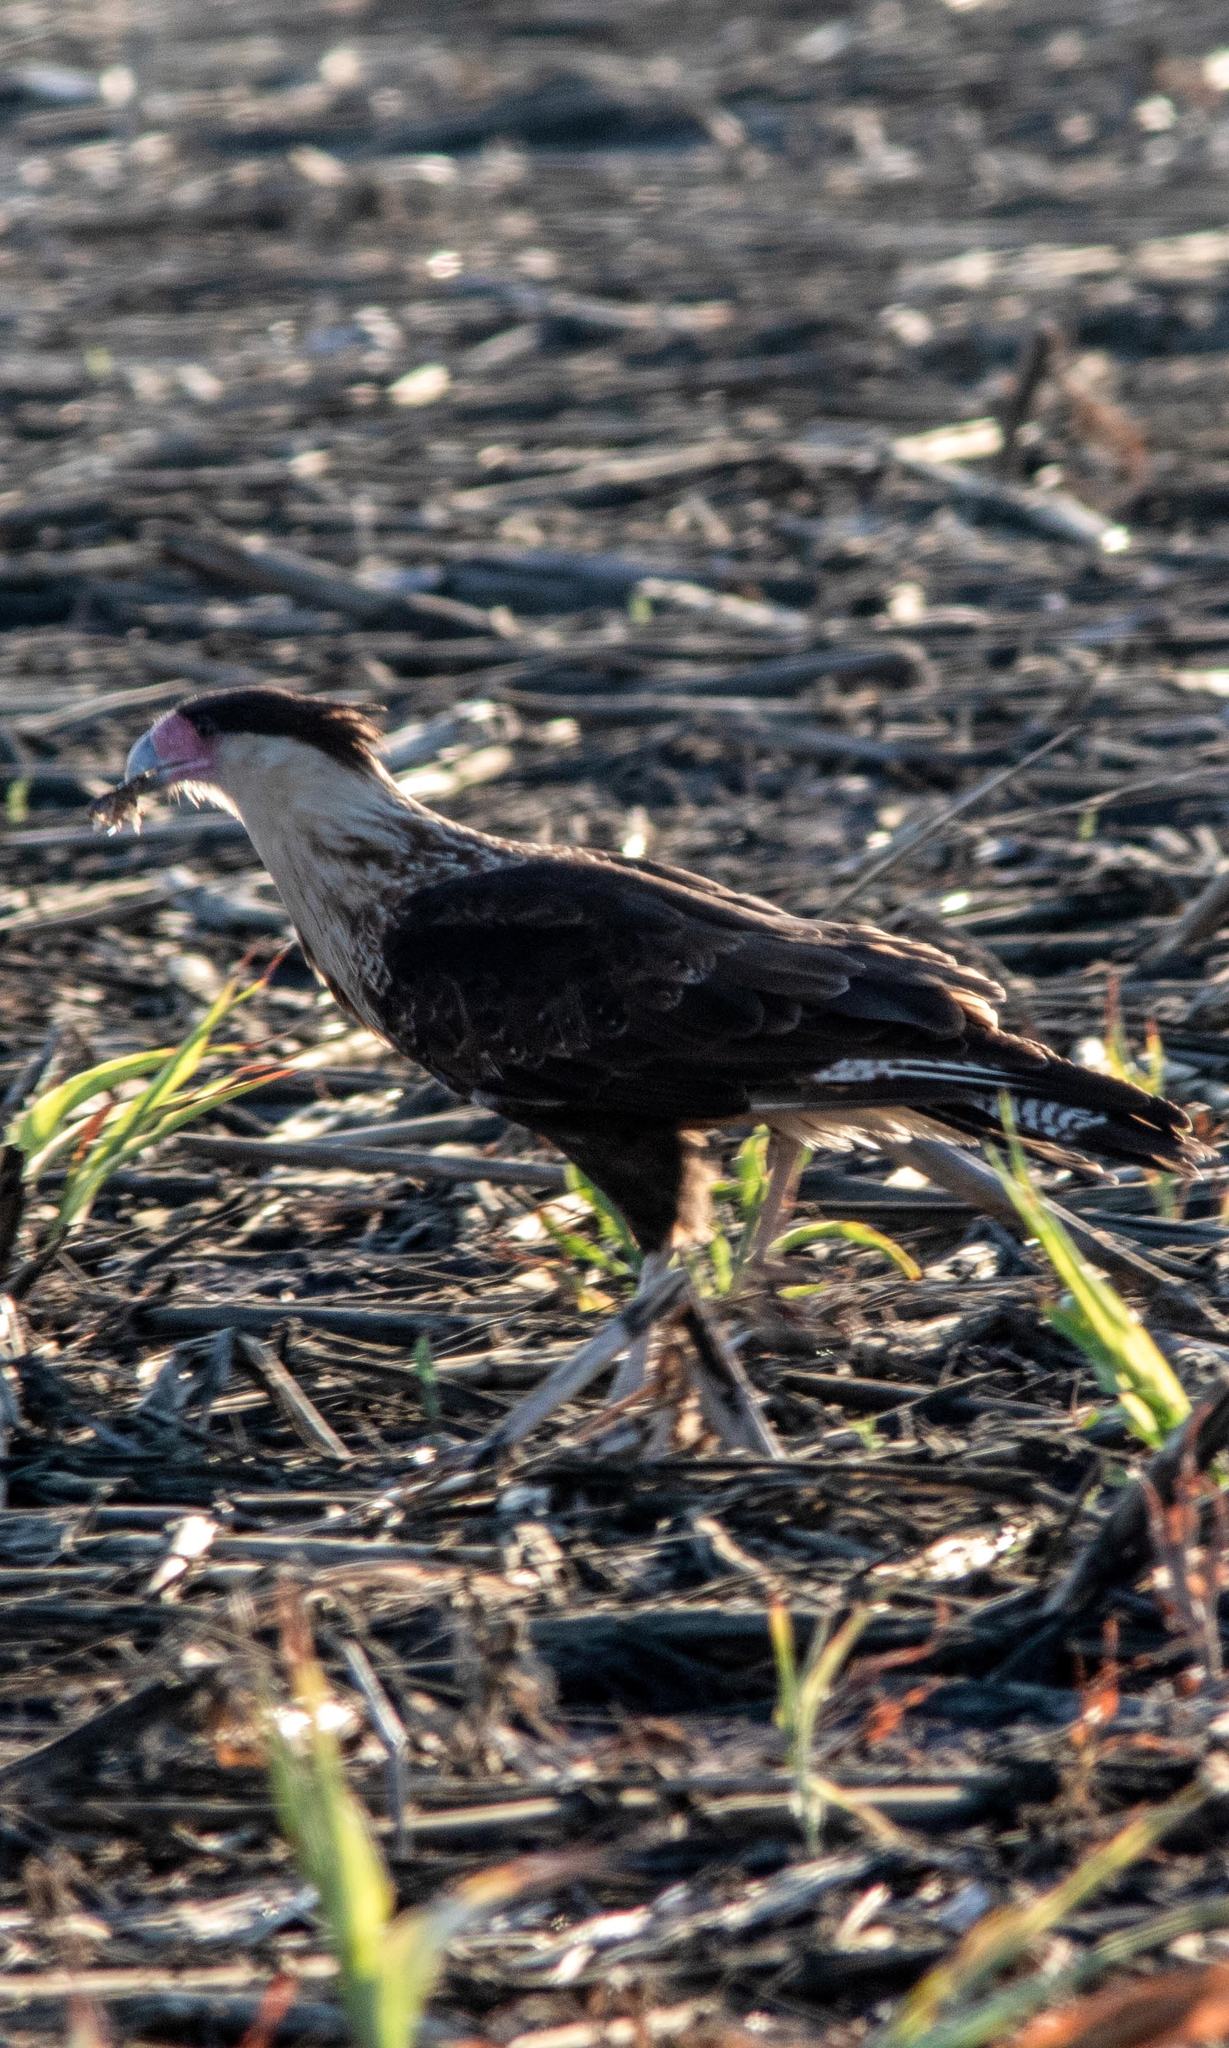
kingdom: Animalia
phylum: Chordata
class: Aves
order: Falconiformes
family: Falconidae
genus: Caracara
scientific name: Caracara plancus
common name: Southern caracara
